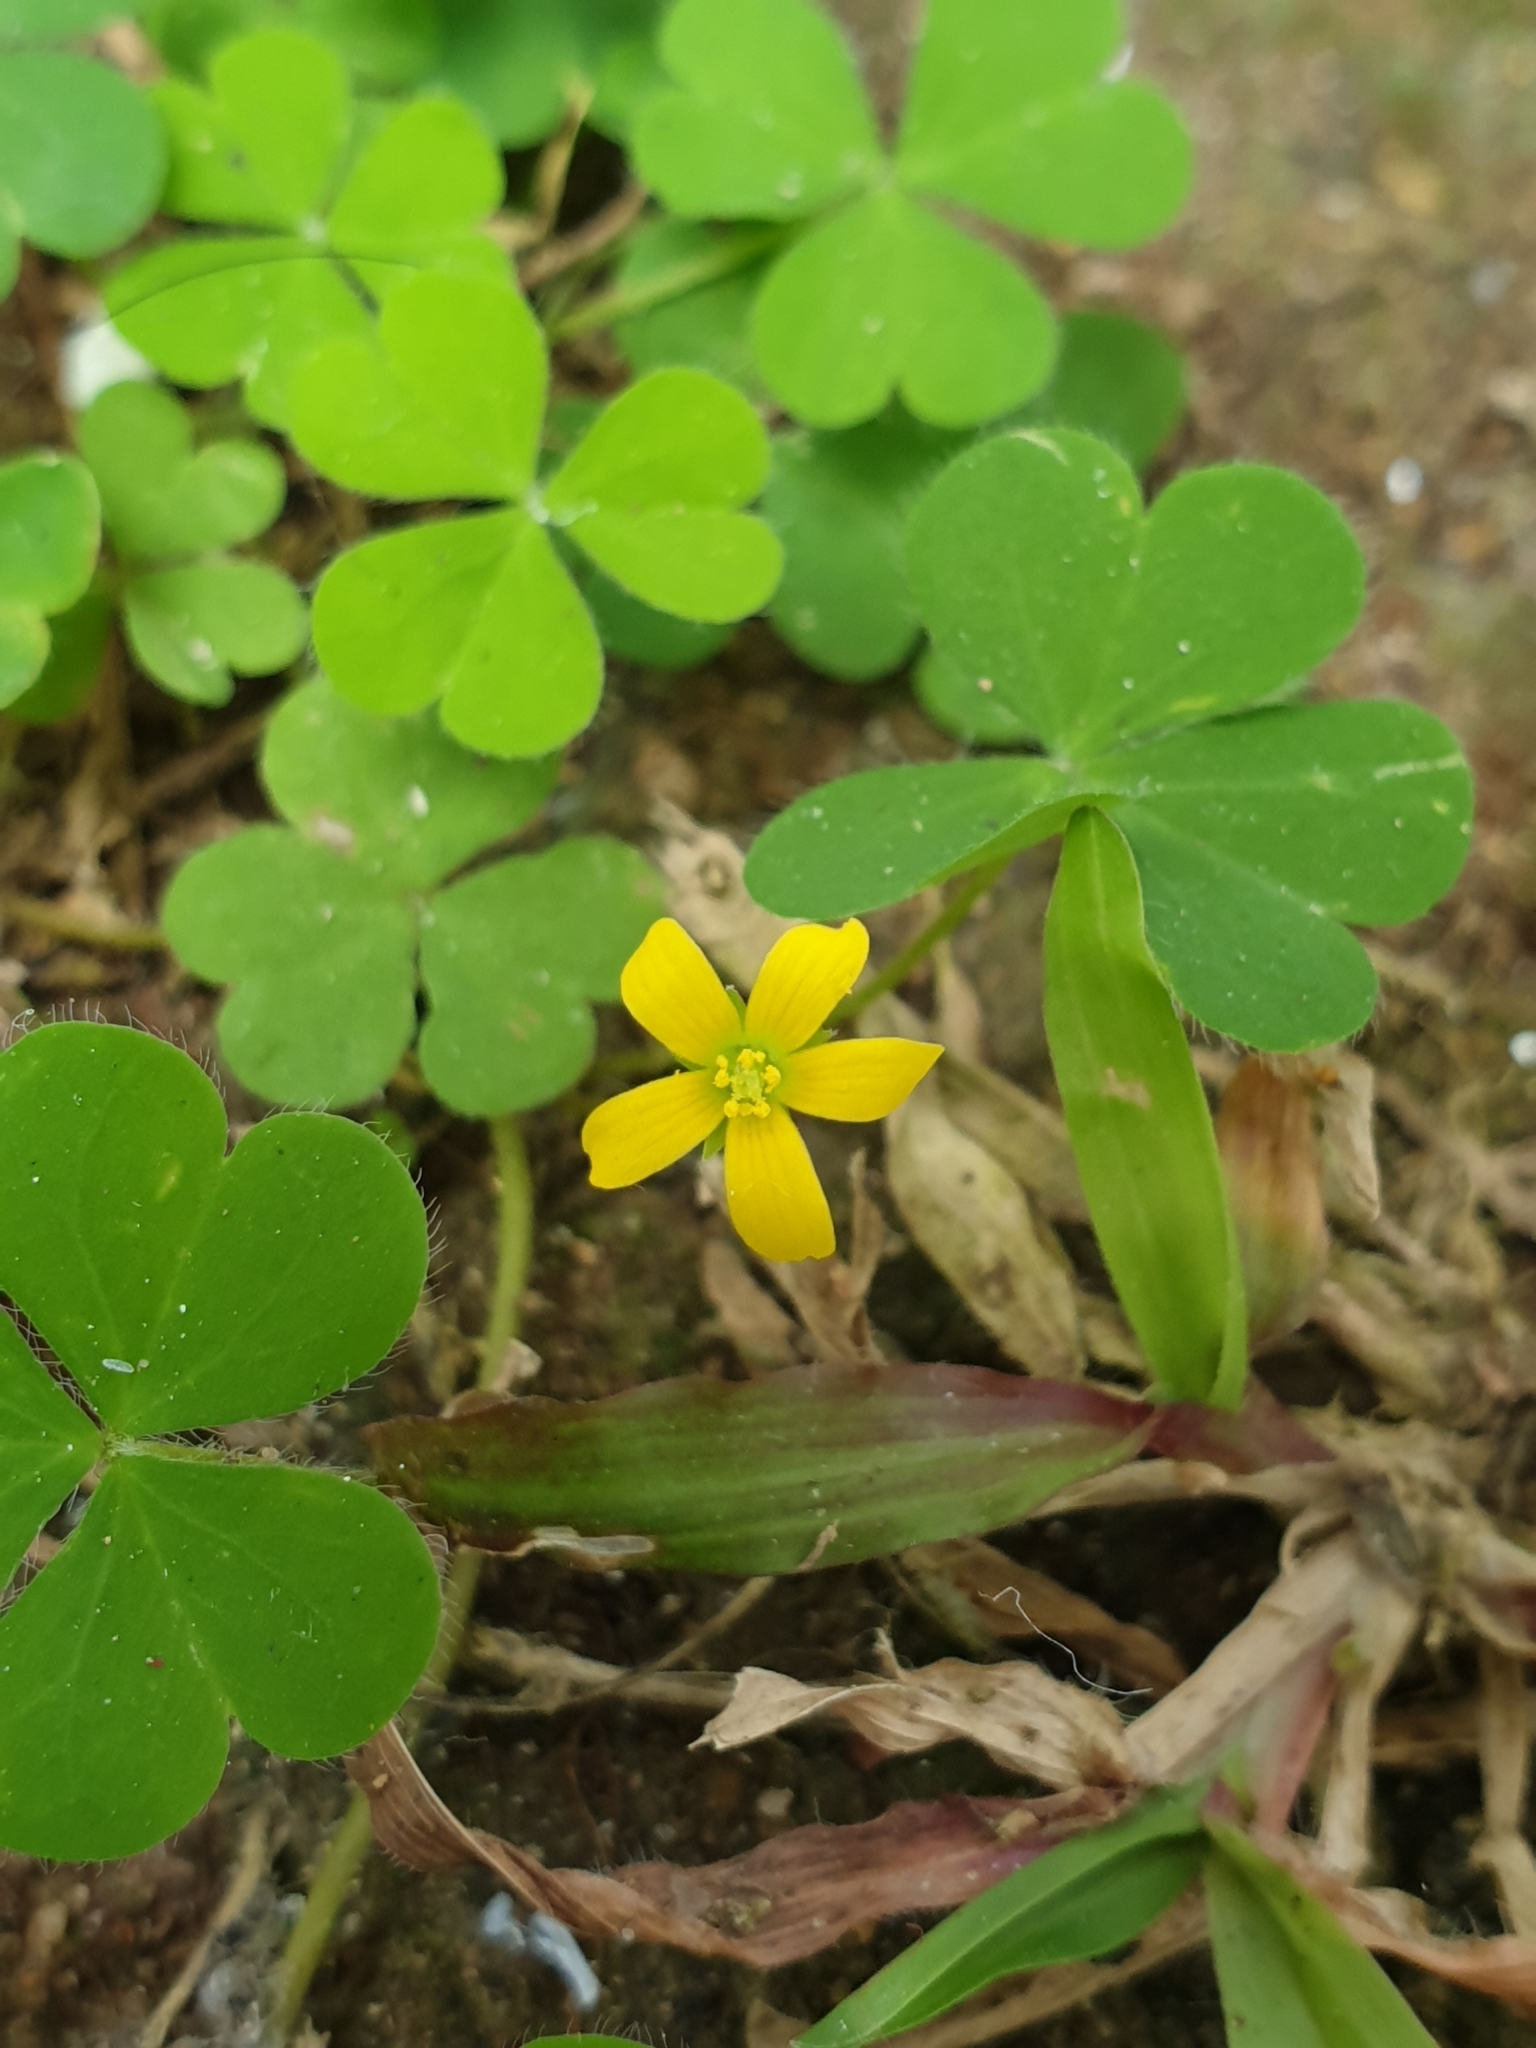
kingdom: Plantae
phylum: Tracheophyta
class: Magnoliopsida
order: Oxalidales
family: Oxalidaceae
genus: Oxalis
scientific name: Oxalis corniculata
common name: Procumbent yellow-sorrel
